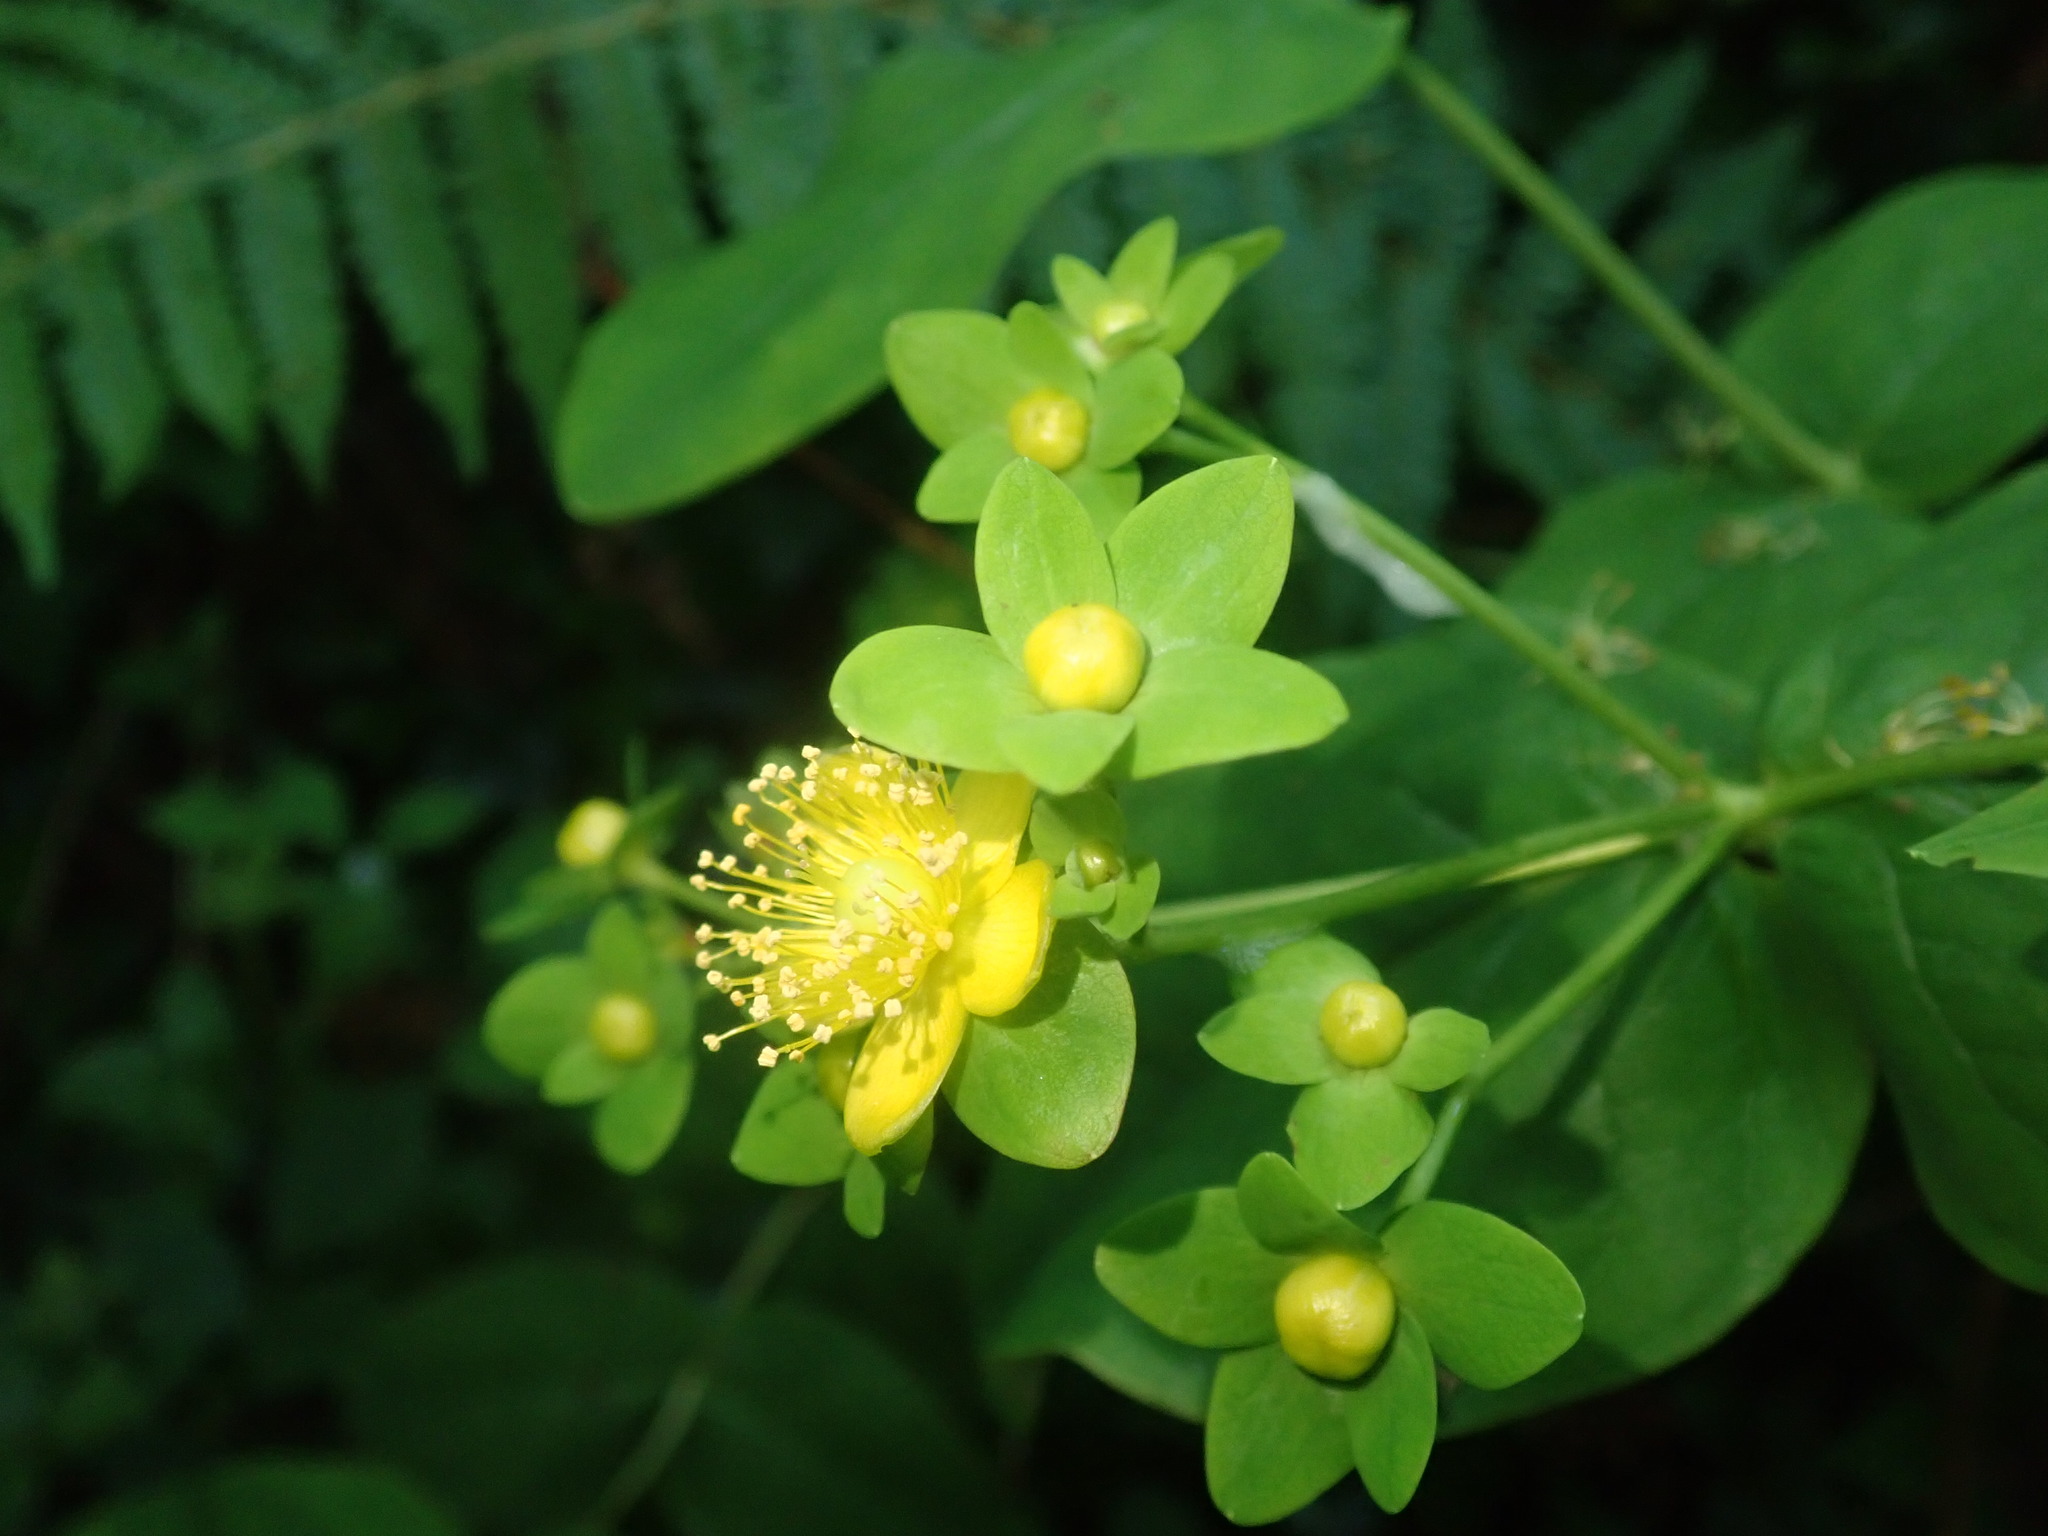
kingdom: Plantae
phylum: Tracheophyta
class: Magnoliopsida
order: Malpighiales
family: Hypericaceae
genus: Hypericum
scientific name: Hypericum androsaemum
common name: Sweet-amber
